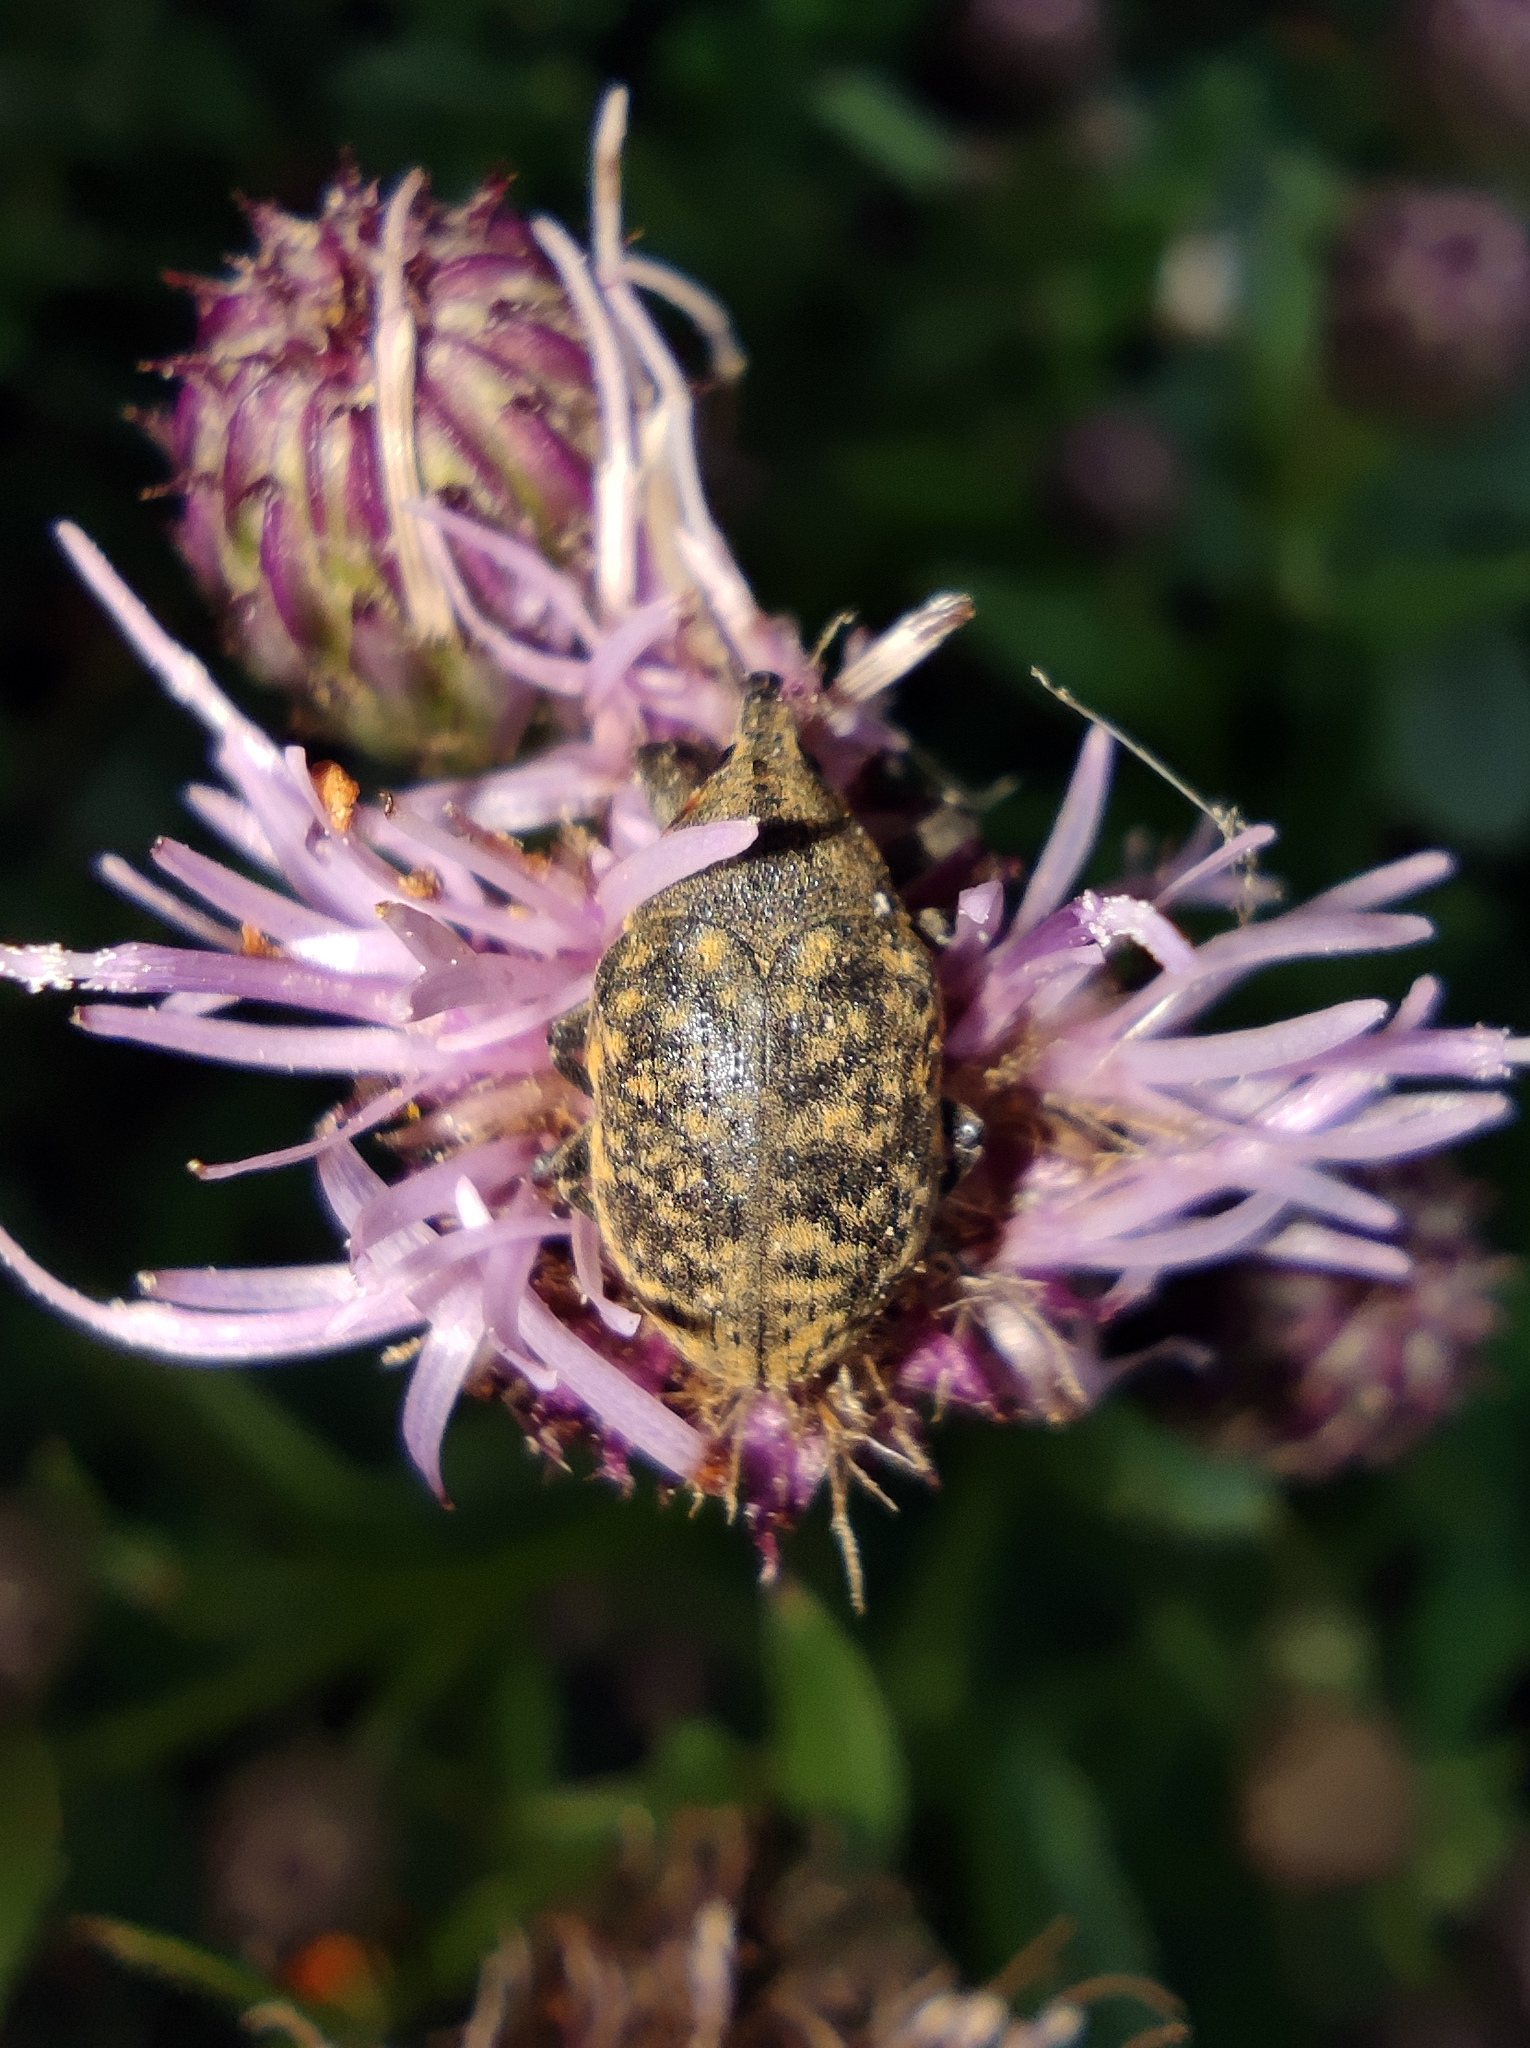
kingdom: Animalia
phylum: Arthropoda
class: Insecta
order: Coleoptera
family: Curculionidae
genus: Larinus
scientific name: Larinus turbinatus
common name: Weevil
